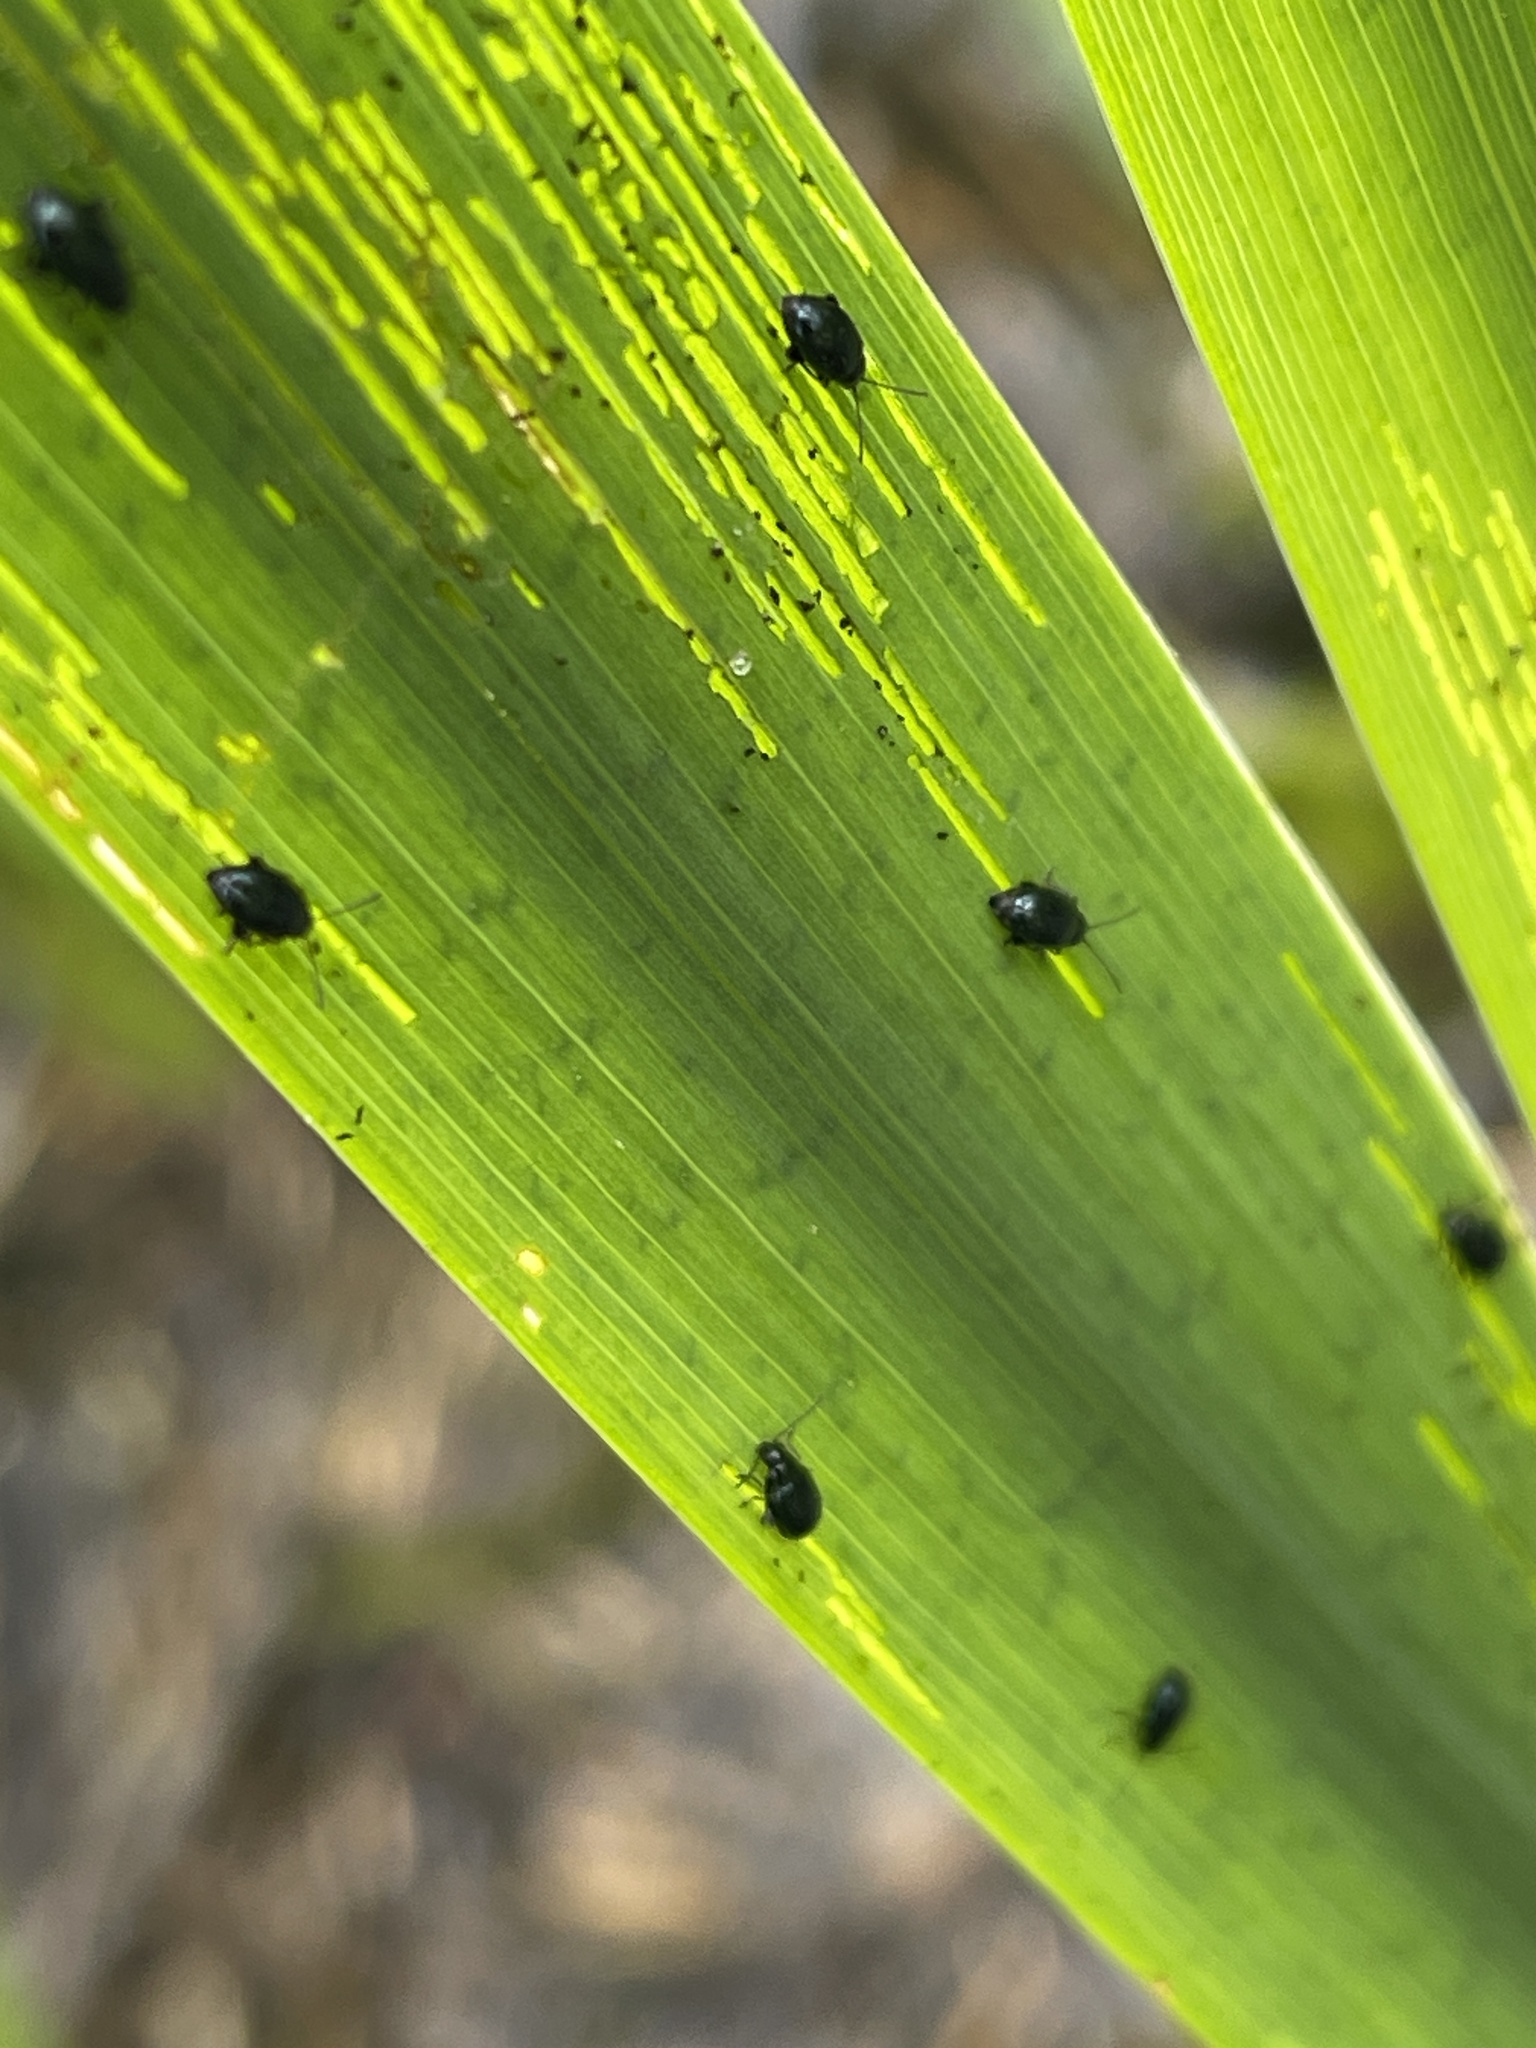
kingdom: Animalia
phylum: Arthropoda
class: Insecta
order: Coleoptera
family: Chrysomelidae
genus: Aphthona
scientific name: Aphthona nonstriata
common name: Iris flea beetle
